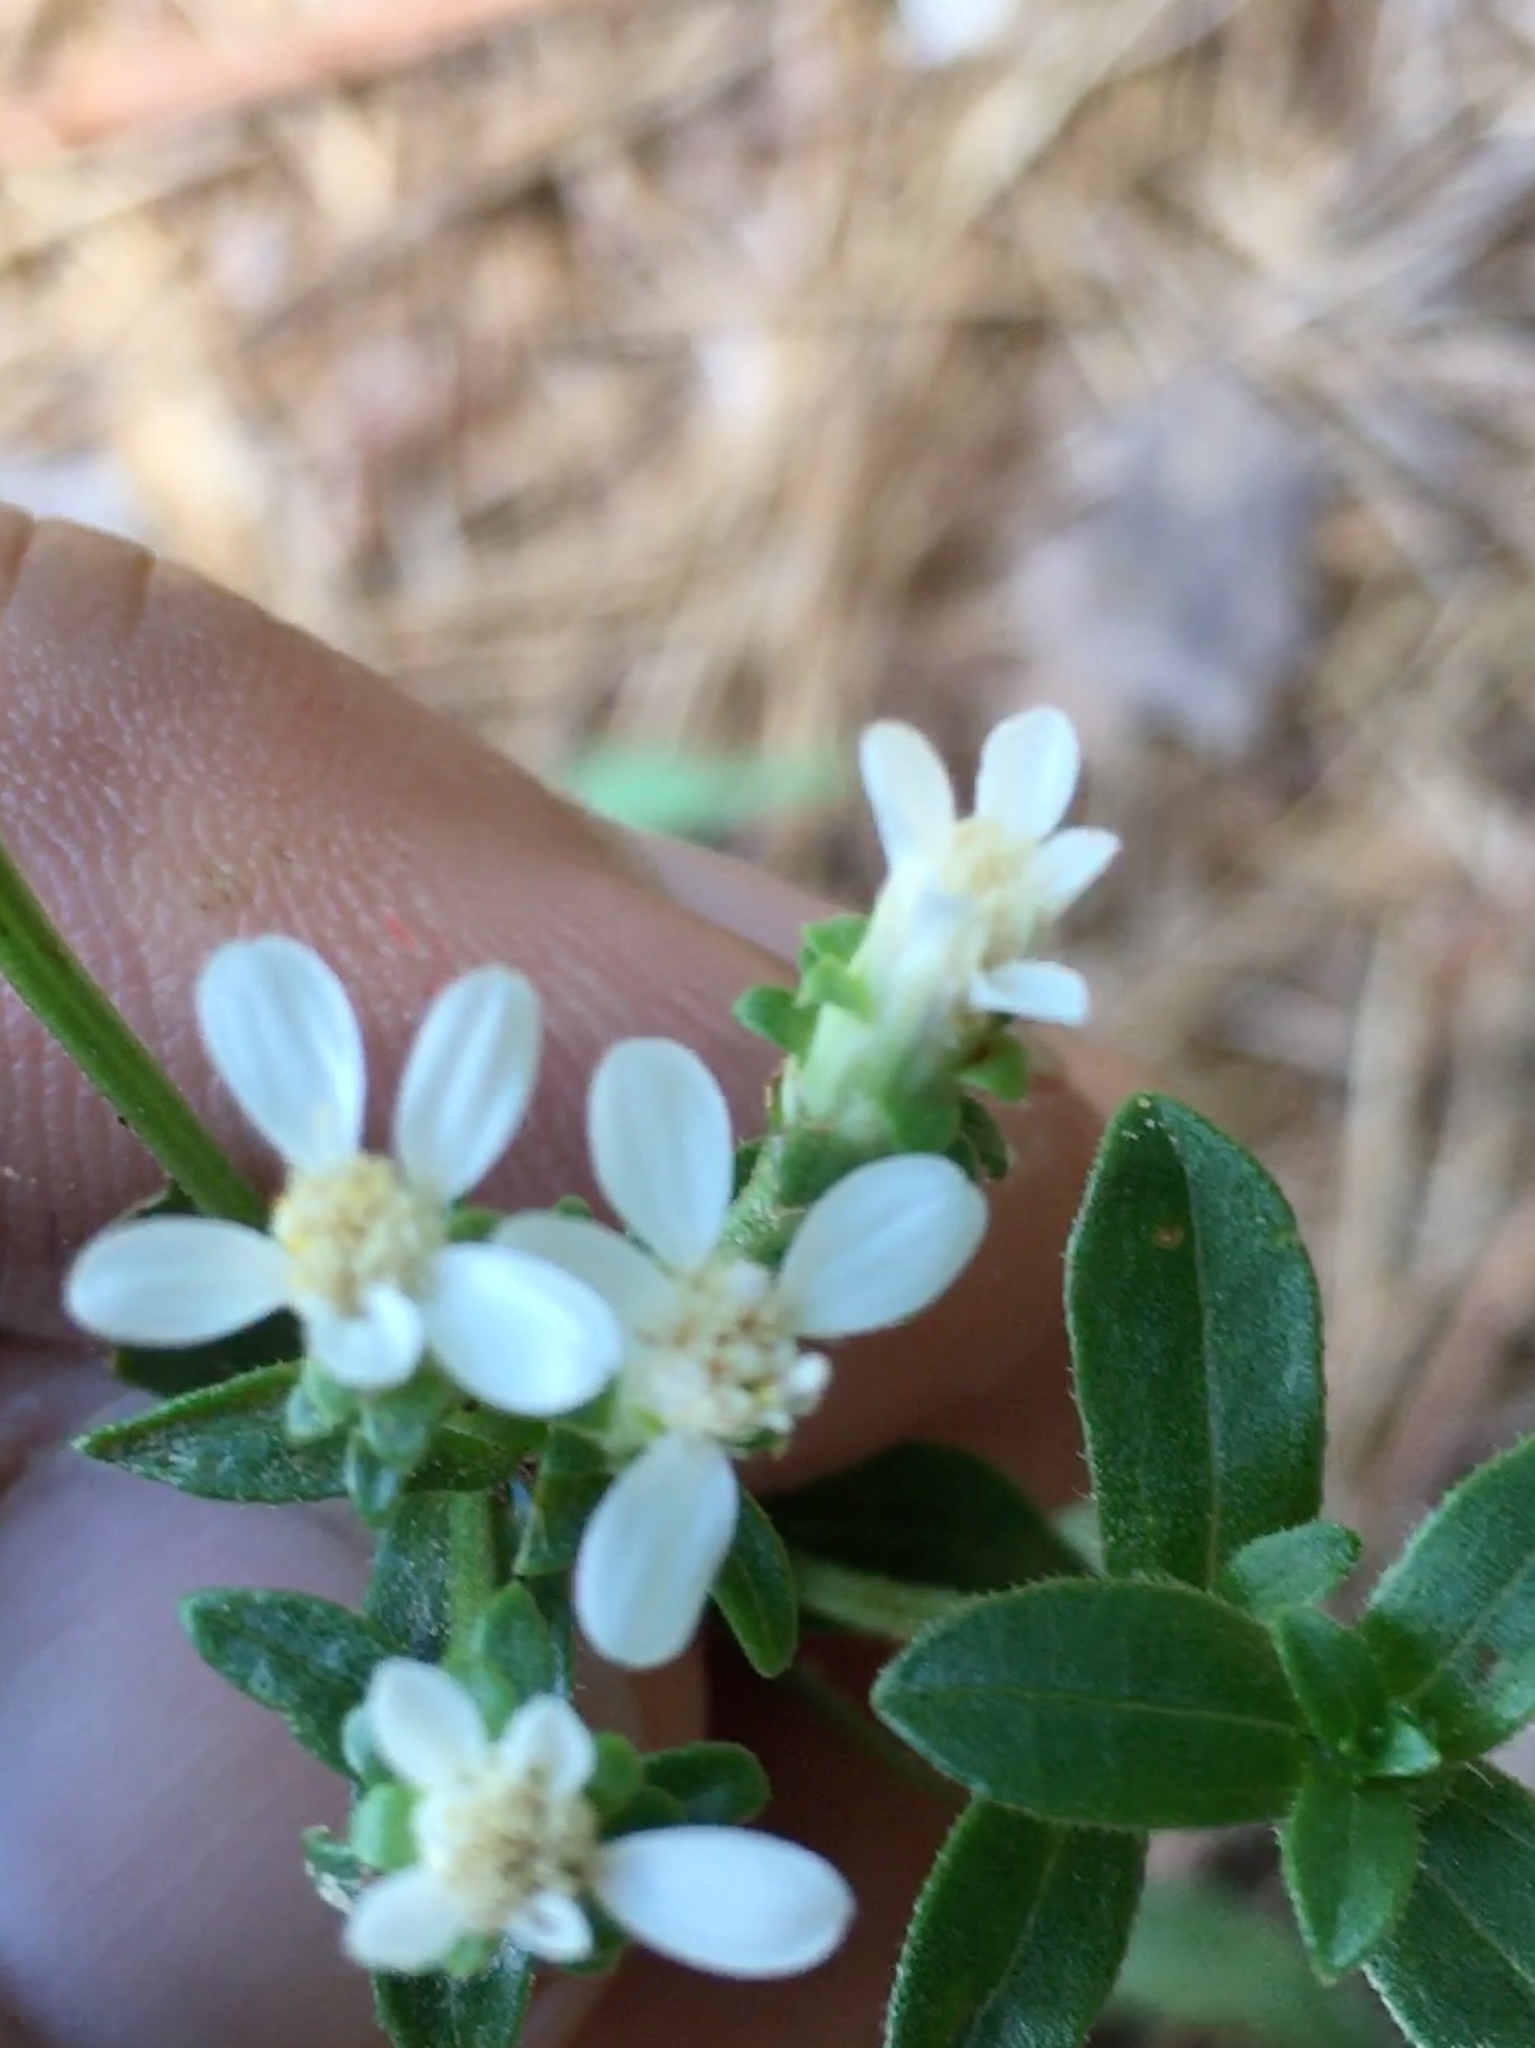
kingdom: Plantae
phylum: Tracheophyta
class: Magnoliopsida
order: Asterales
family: Asteraceae
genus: Sericocarpus
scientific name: Sericocarpus asteroides
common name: Toothed white-top aster
